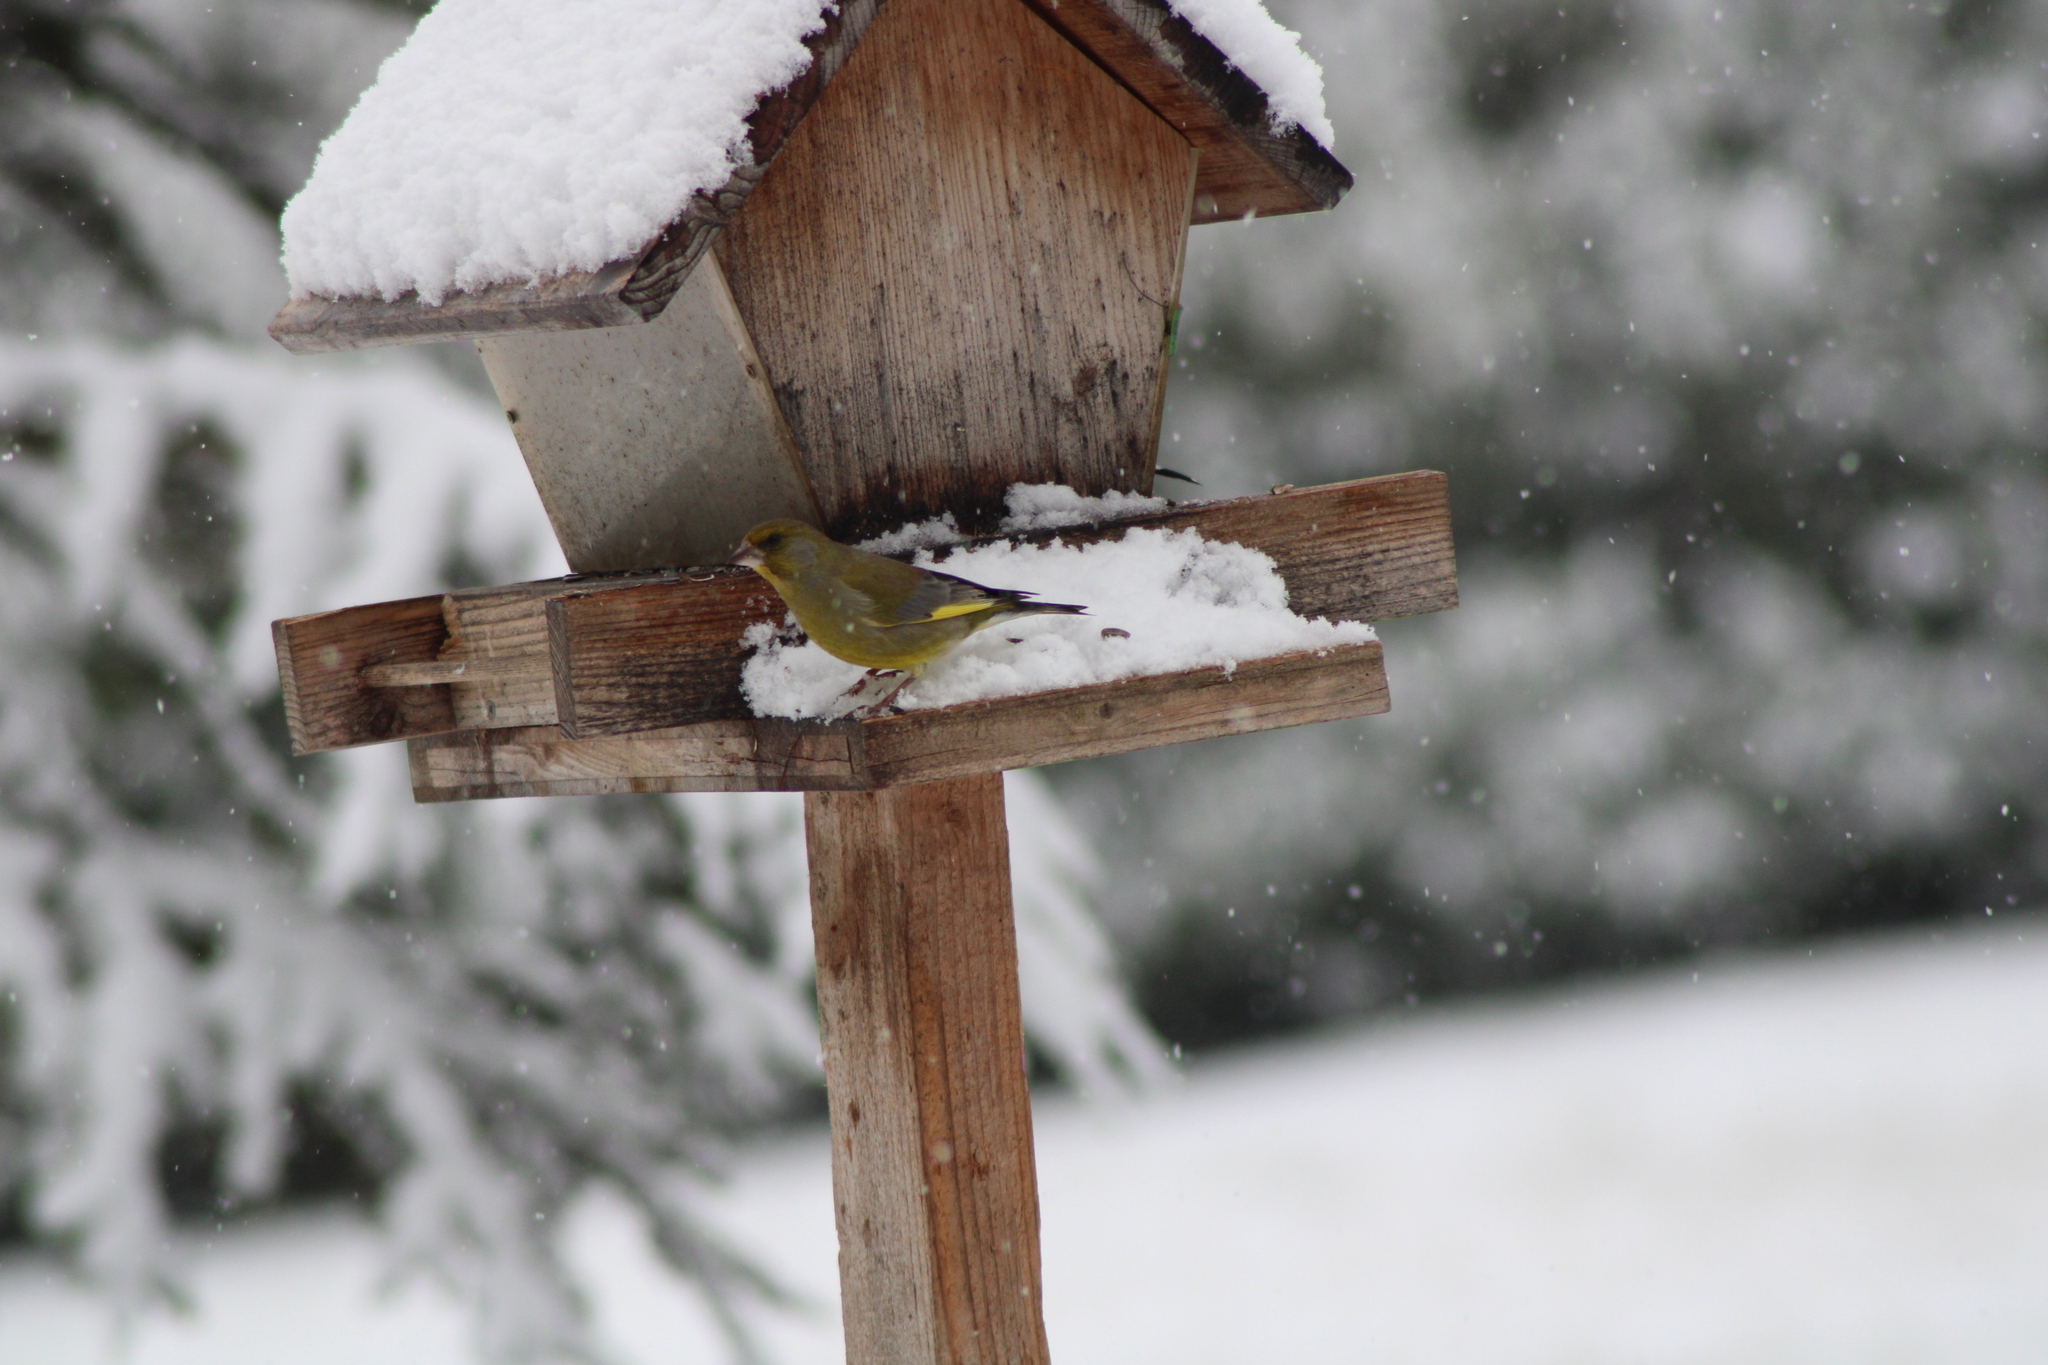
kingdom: Plantae
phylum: Tracheophyta
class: Liliopsida
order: Poales
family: Poaceae
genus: Chloris
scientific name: Chloris chloris
